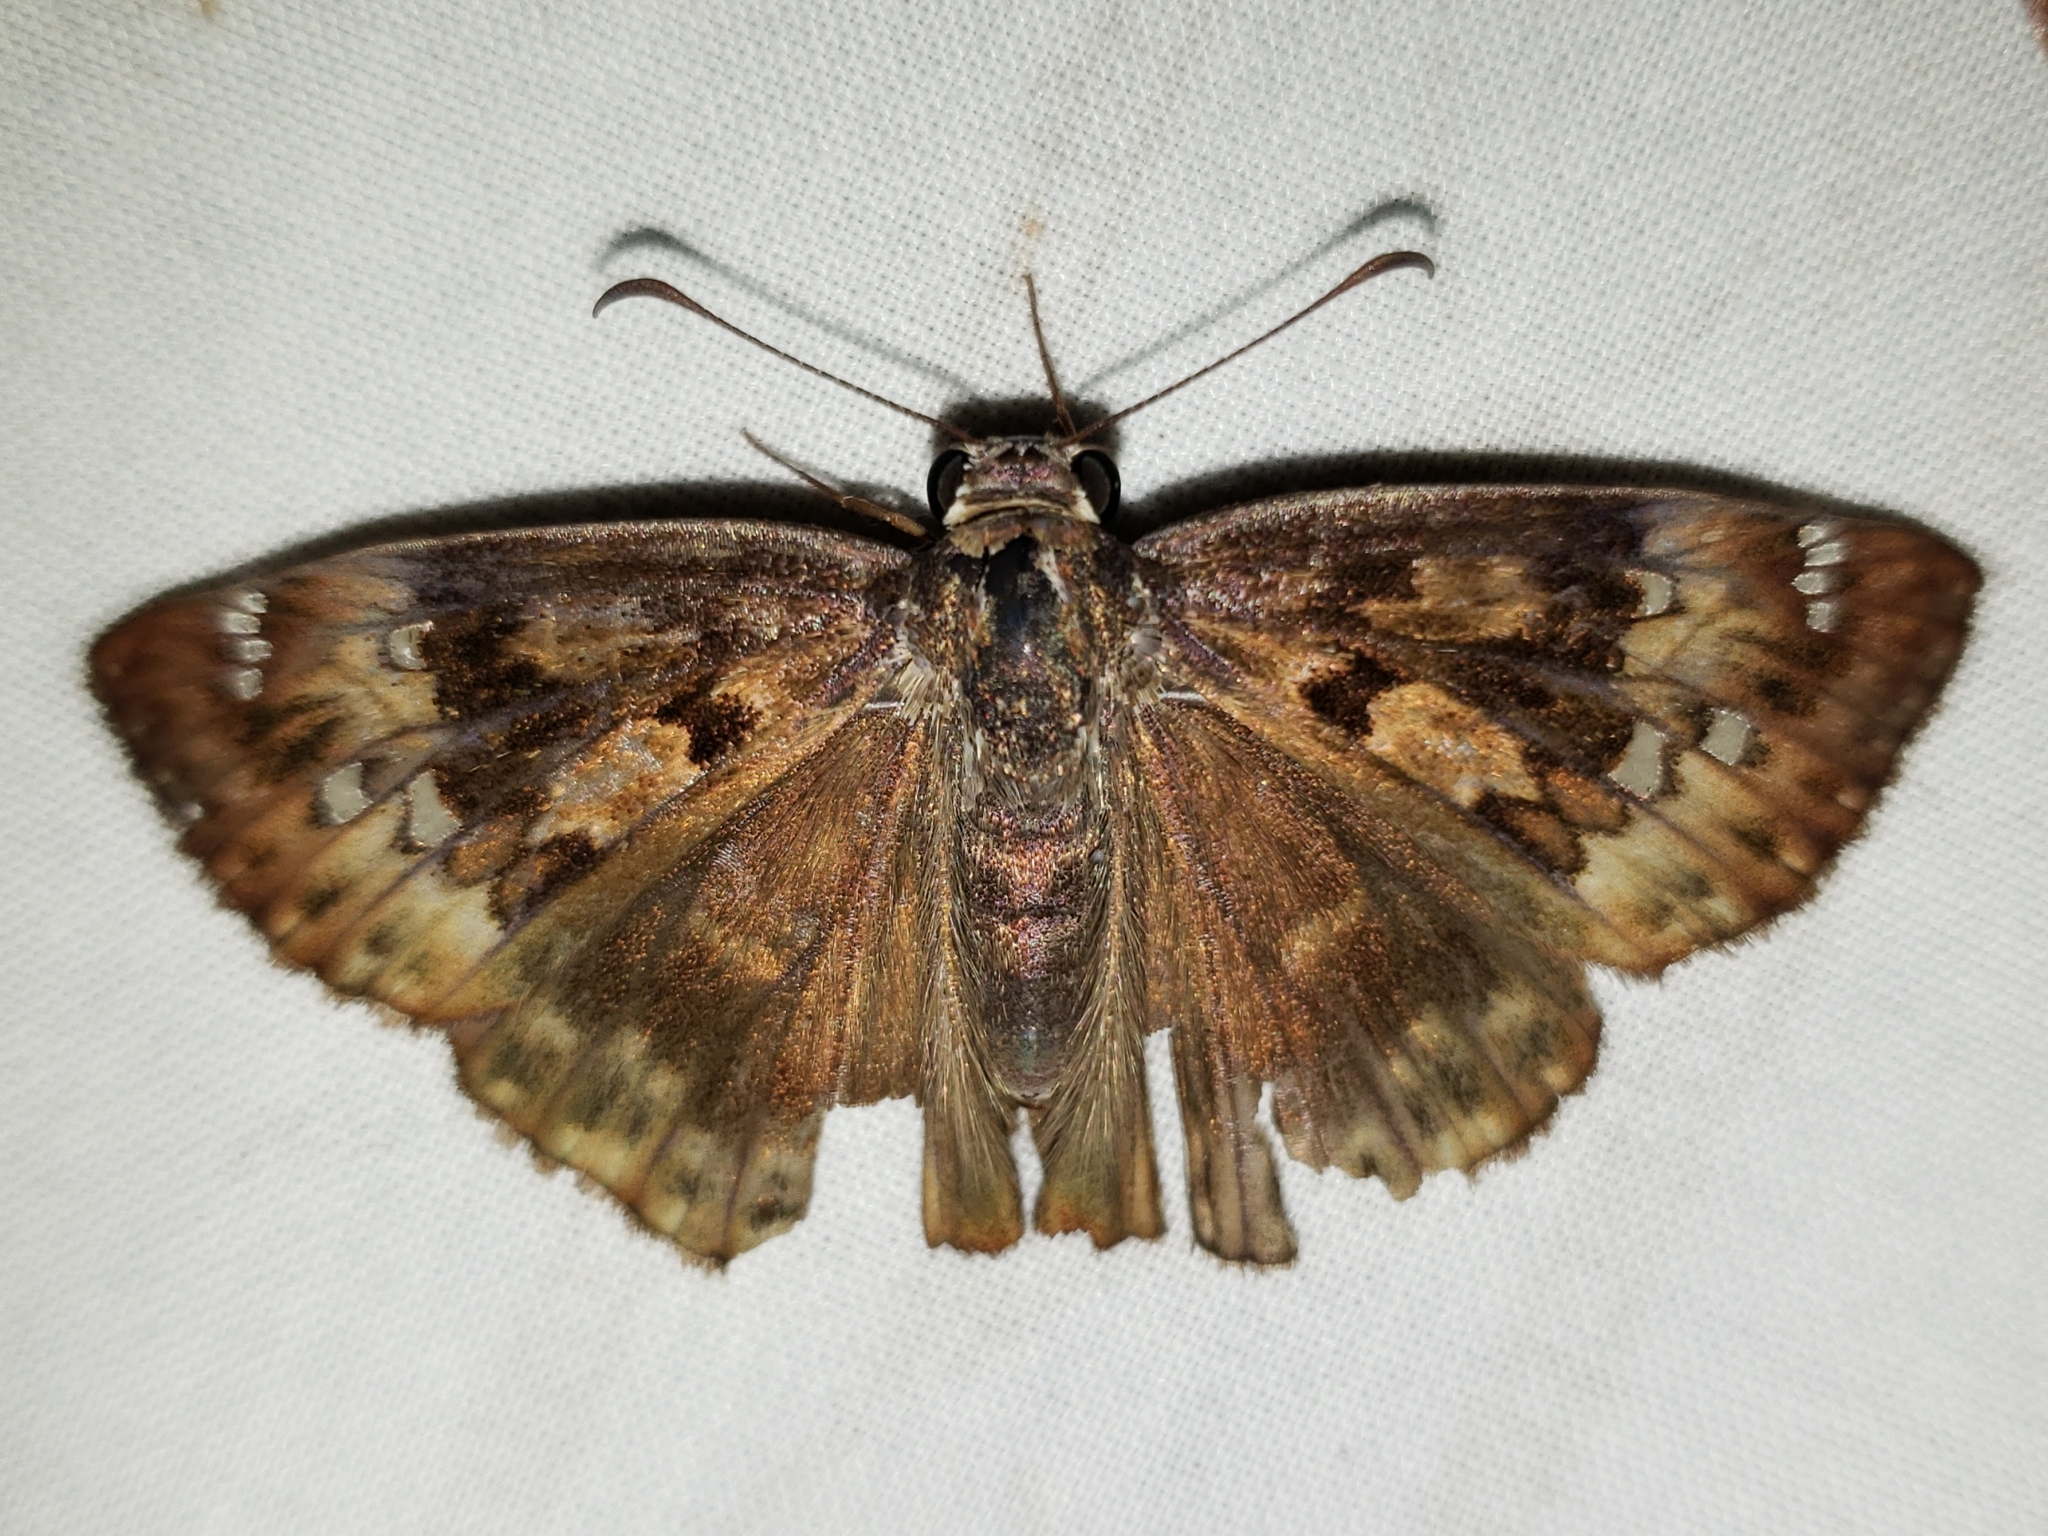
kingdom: Animalia
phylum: Arthropoda
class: Insecta
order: Lepidoptera
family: Hesperiidae
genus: Erynnis
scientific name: Erynnis horatius
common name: Horace's duskywing
